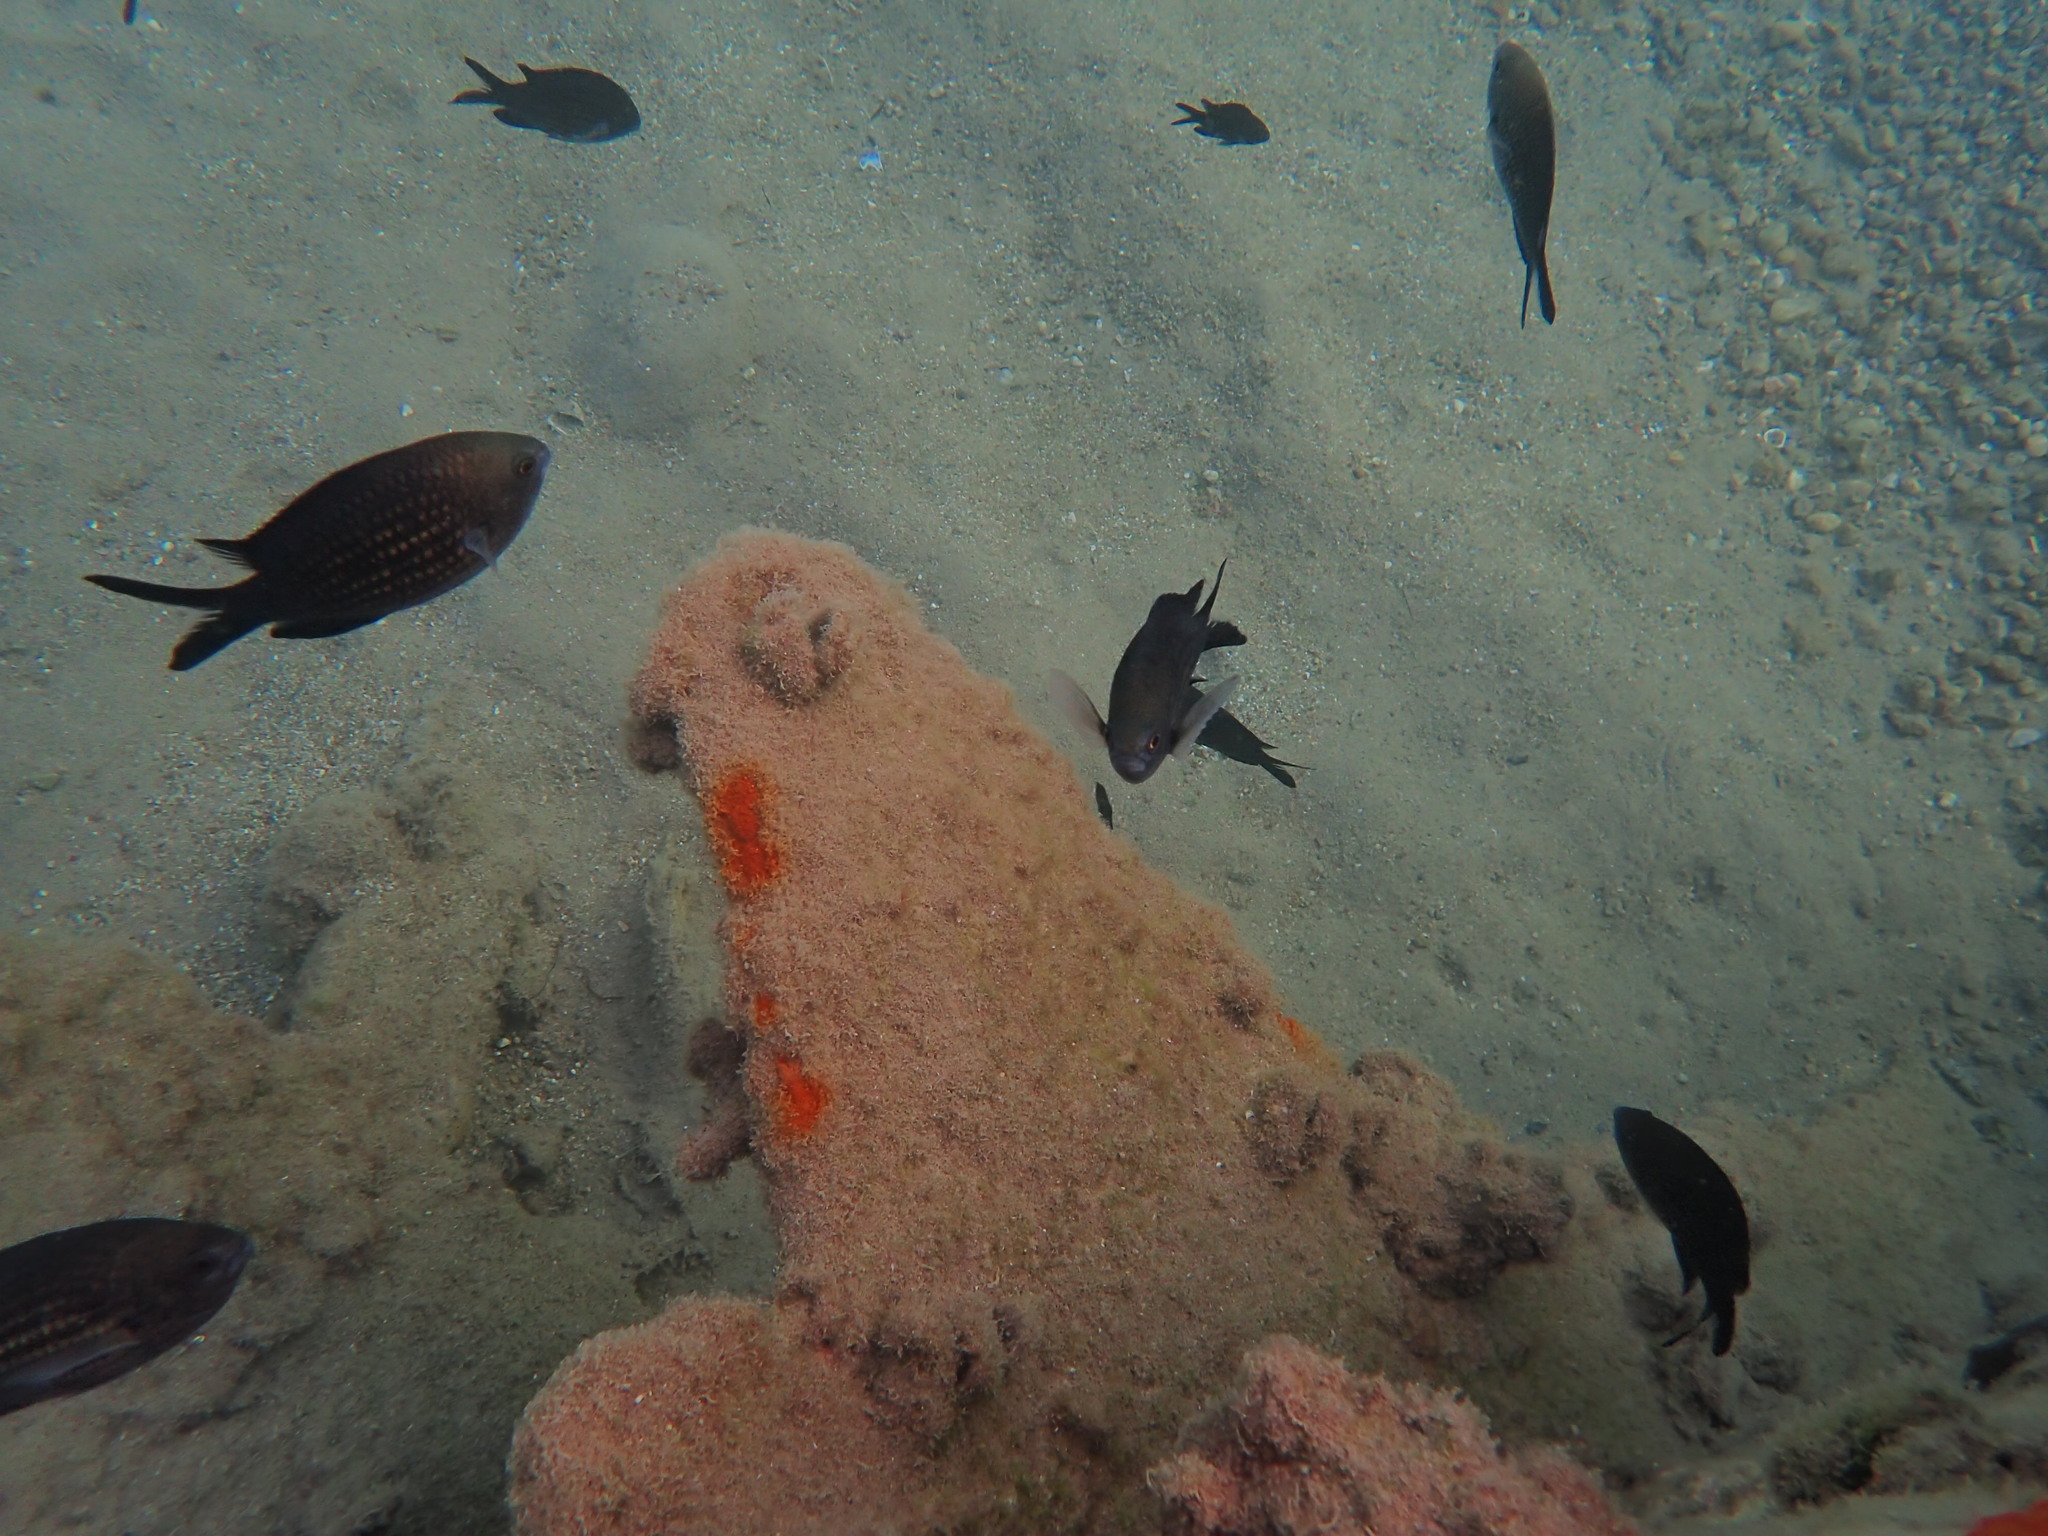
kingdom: Animalia
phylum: Chordata
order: Perciformes
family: Pomacentridae
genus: Chromis
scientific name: Chromis chromis
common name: Damselfish
